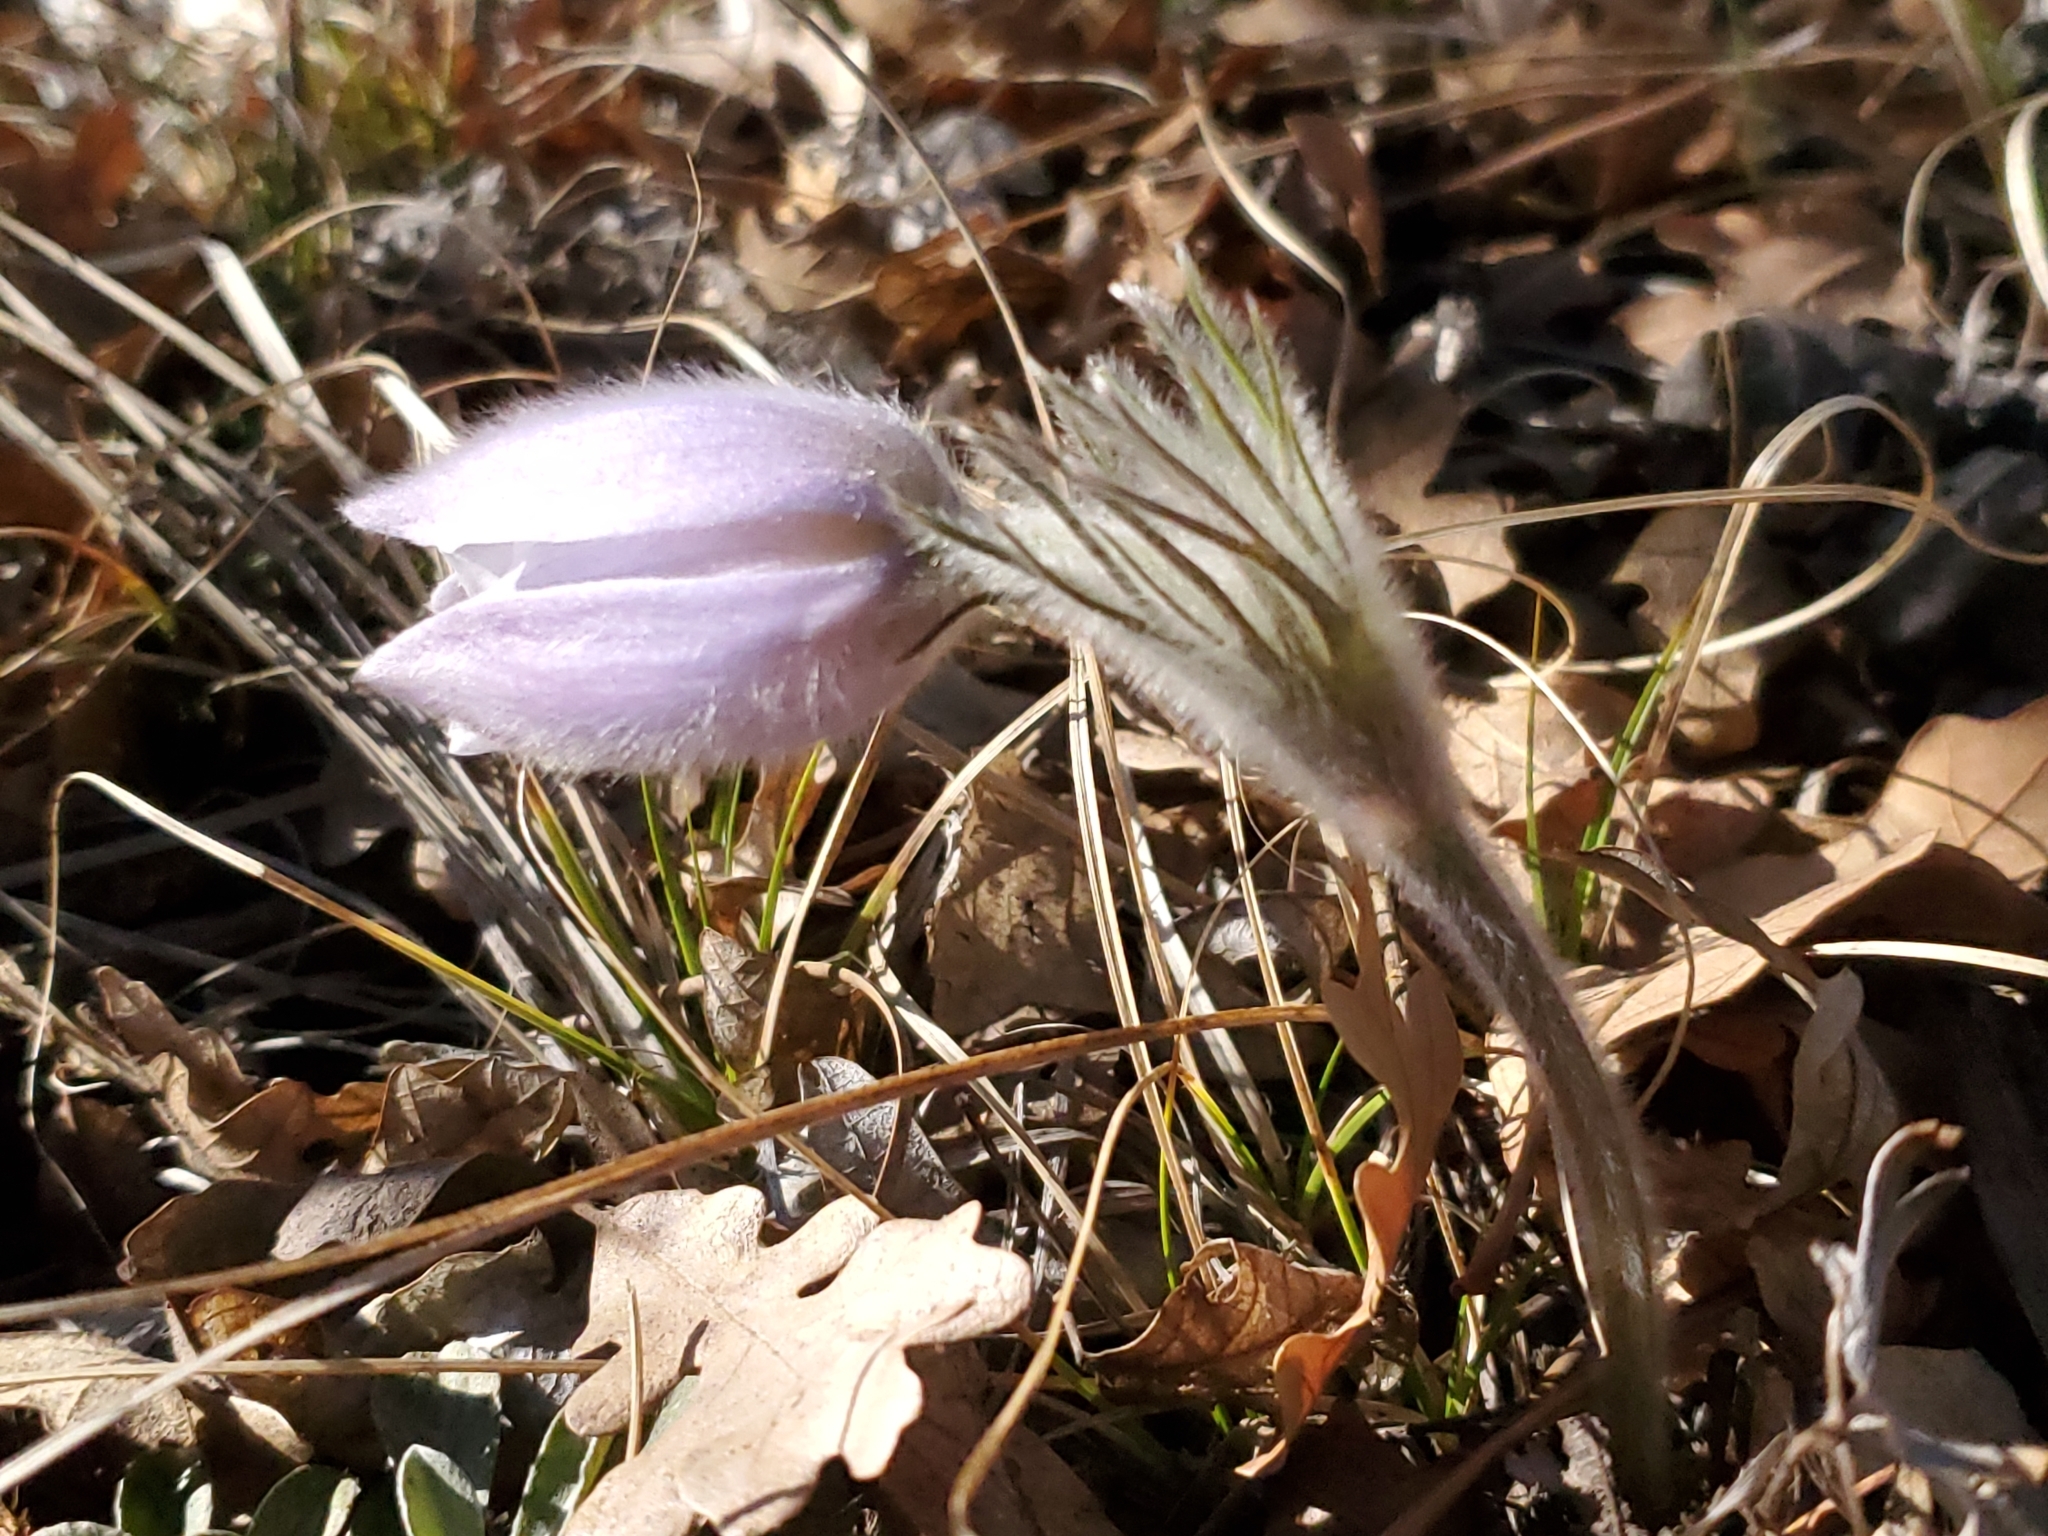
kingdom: Plantae
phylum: Tracheophyta
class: Magnoliopsida
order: Ranunculales
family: Ranunculaceae
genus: Pulsatilla
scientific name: Pulsatilla nuttalliana
